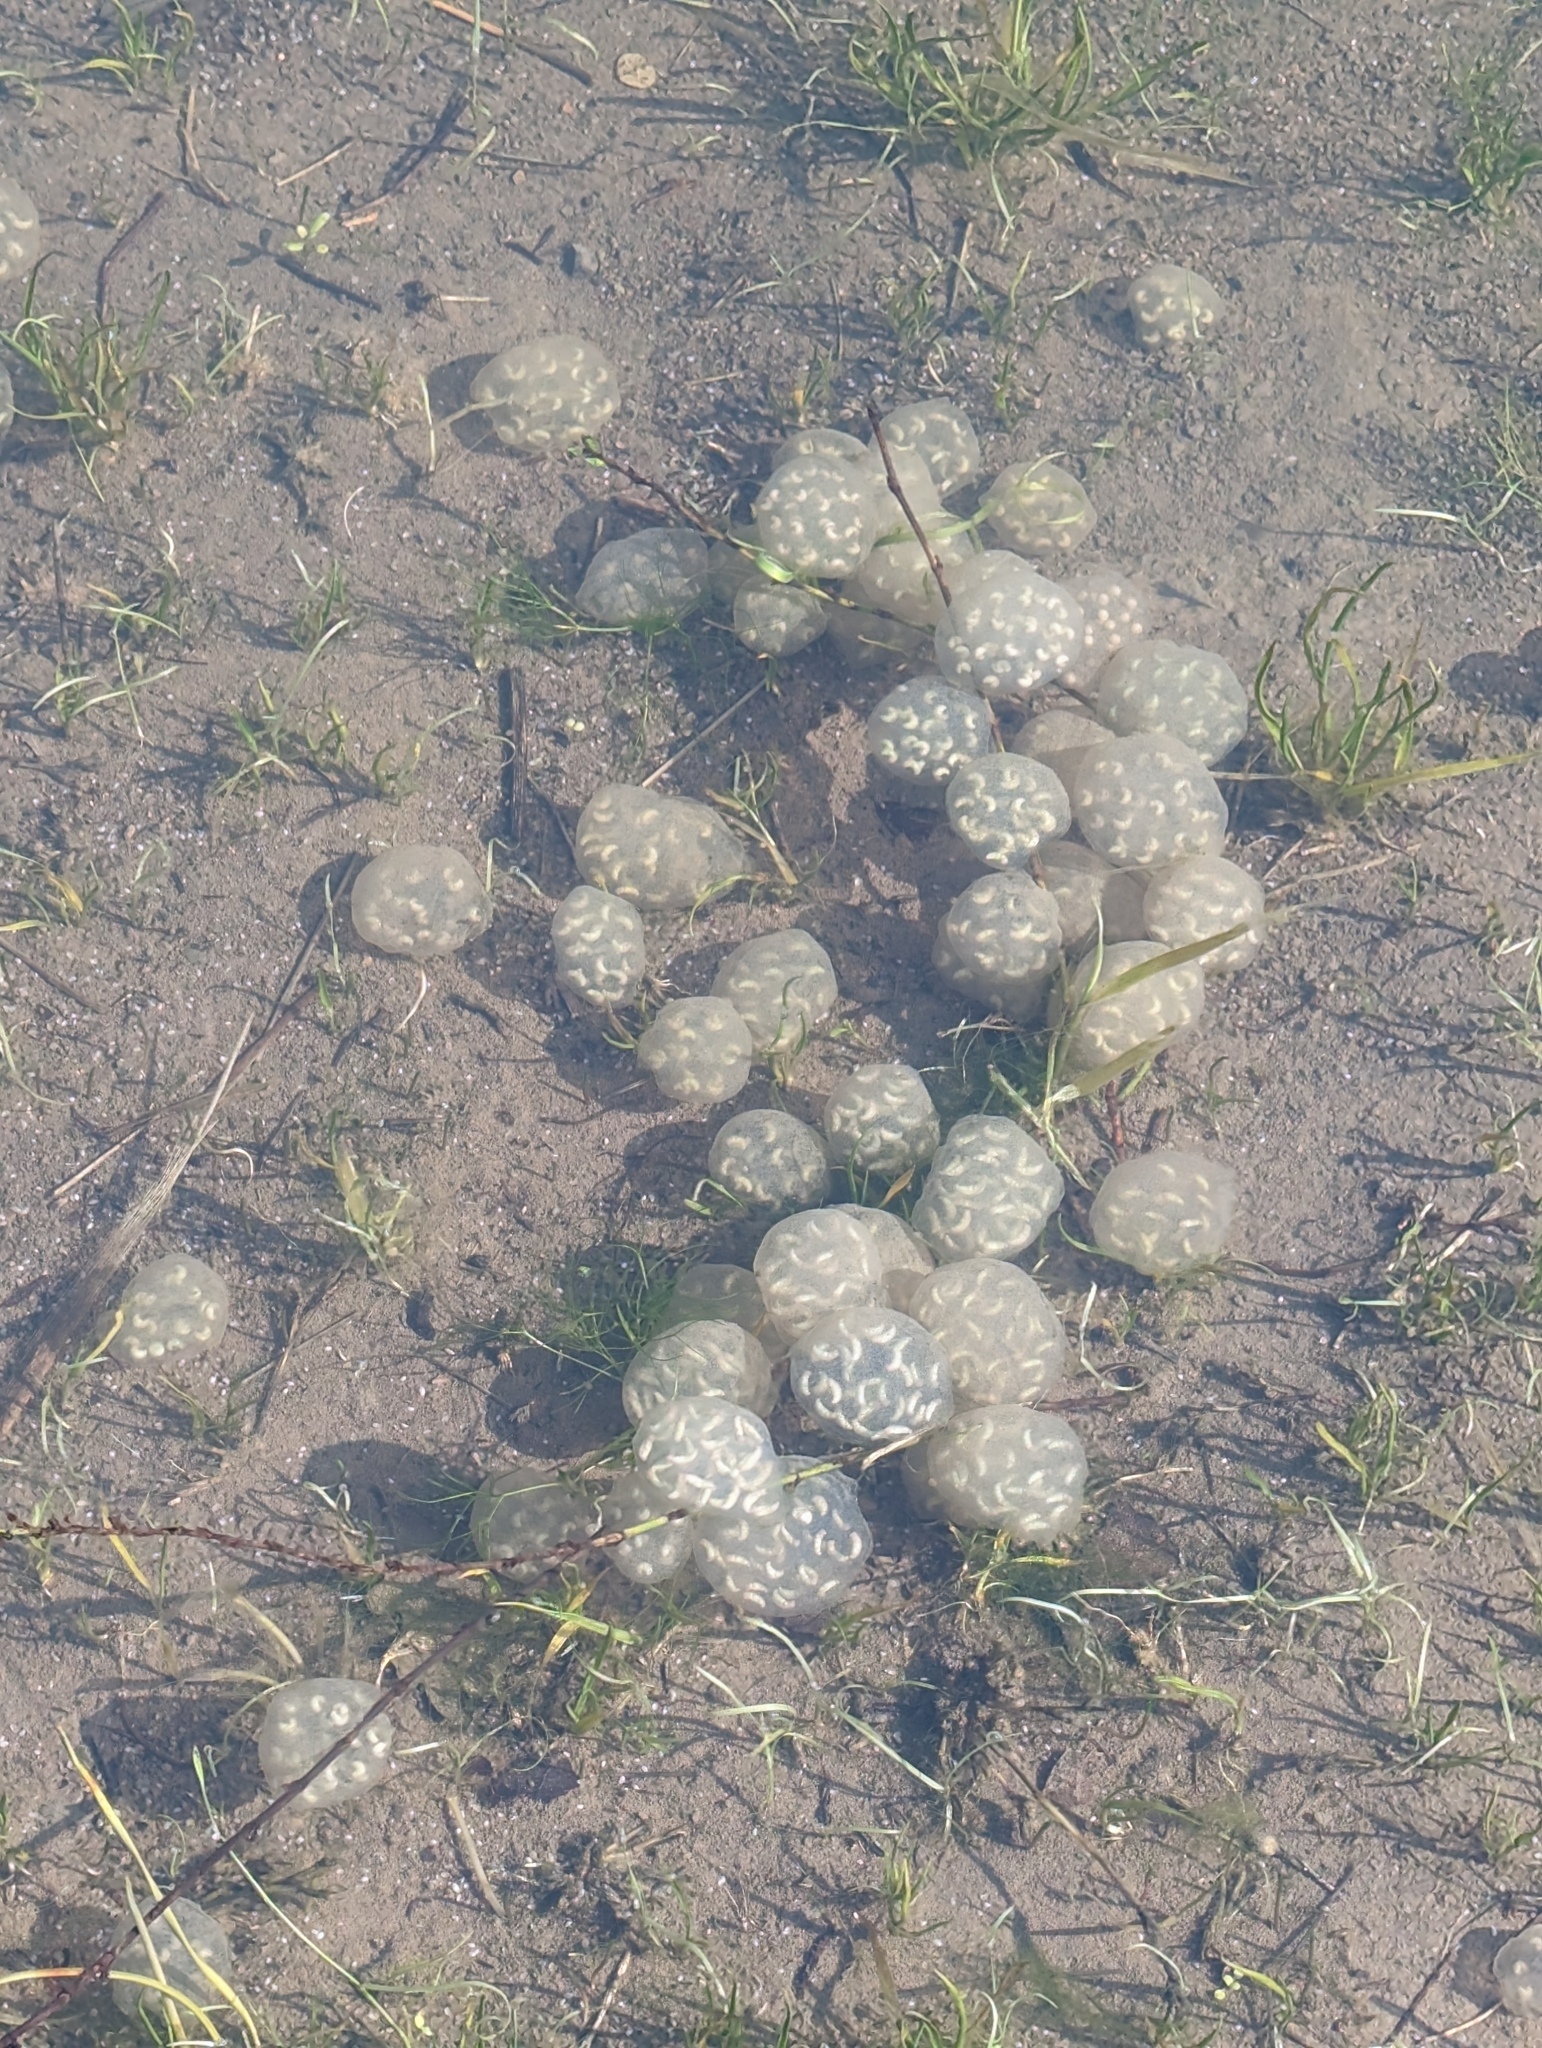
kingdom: Animalia
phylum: Chordata
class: Amphibia
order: Caudata
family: Salamandridae
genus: Taricha
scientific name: Taricha torosa
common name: California newt
